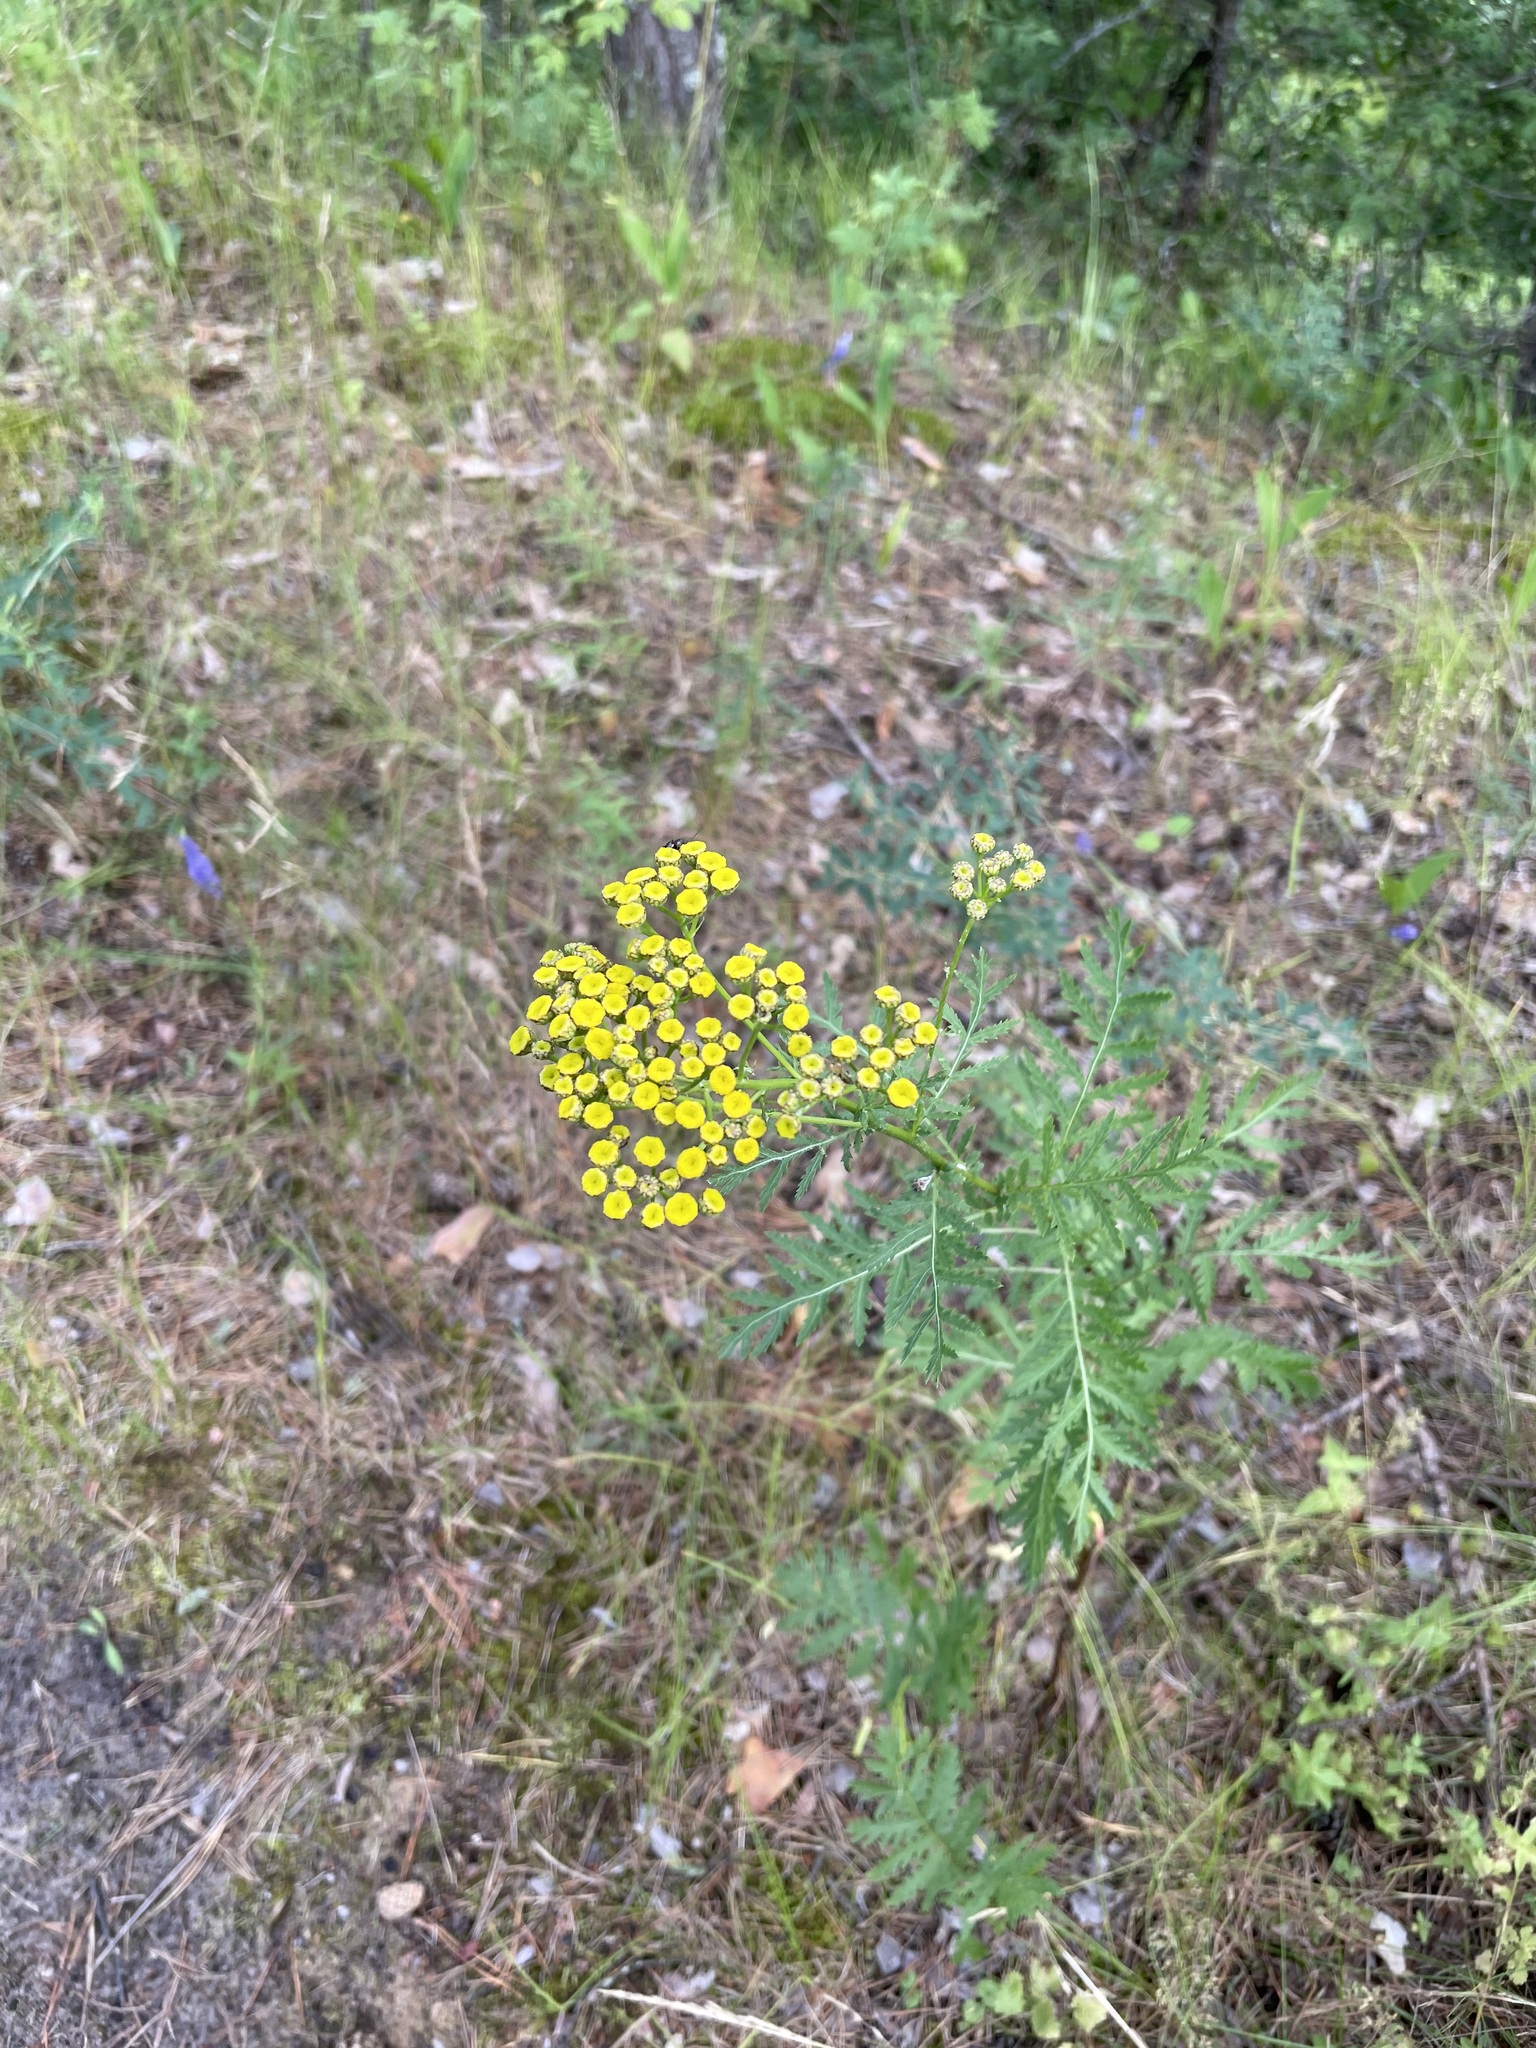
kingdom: Plantae
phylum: Tracheophyta
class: Magnoliopsida
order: Asterales
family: Asteraceae
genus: Tanacetum
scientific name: Tanacetum vulgare
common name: Common tansy
